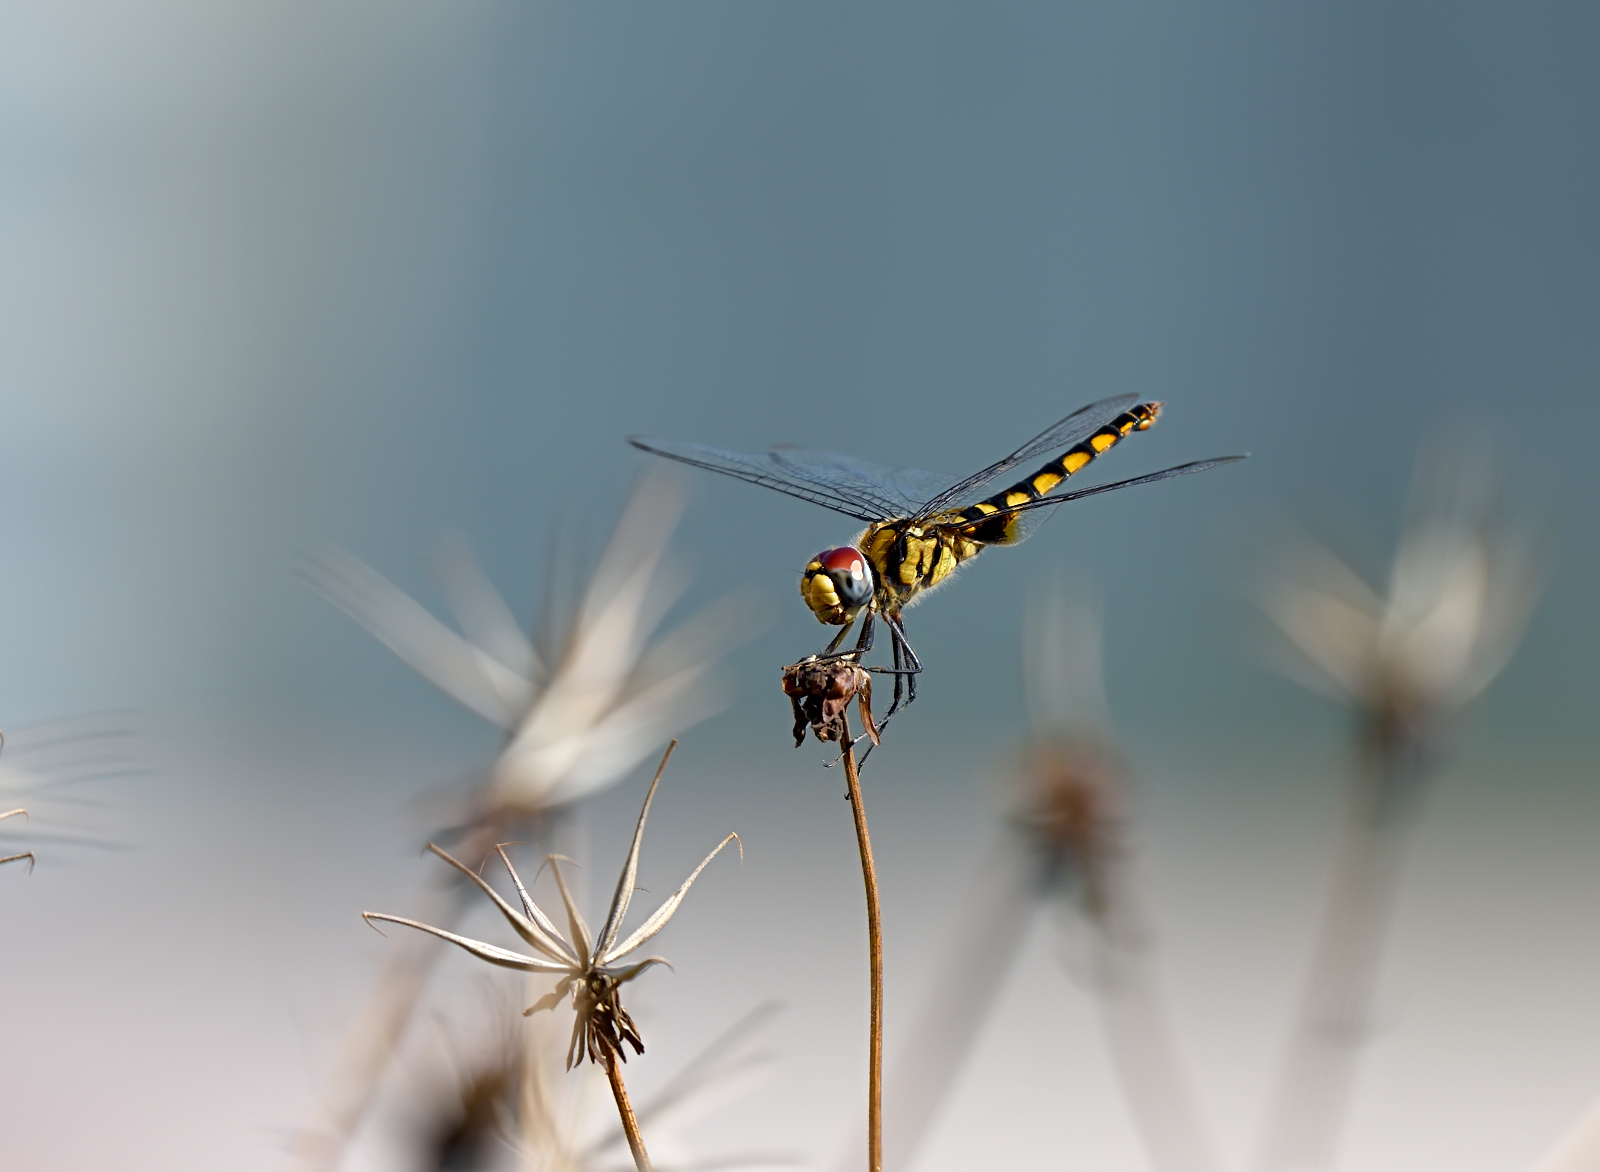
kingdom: Animalia
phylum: Arthropoda
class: Insecta
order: Odonata
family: Libellulidae
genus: Urothemis
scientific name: Urothemis signata
